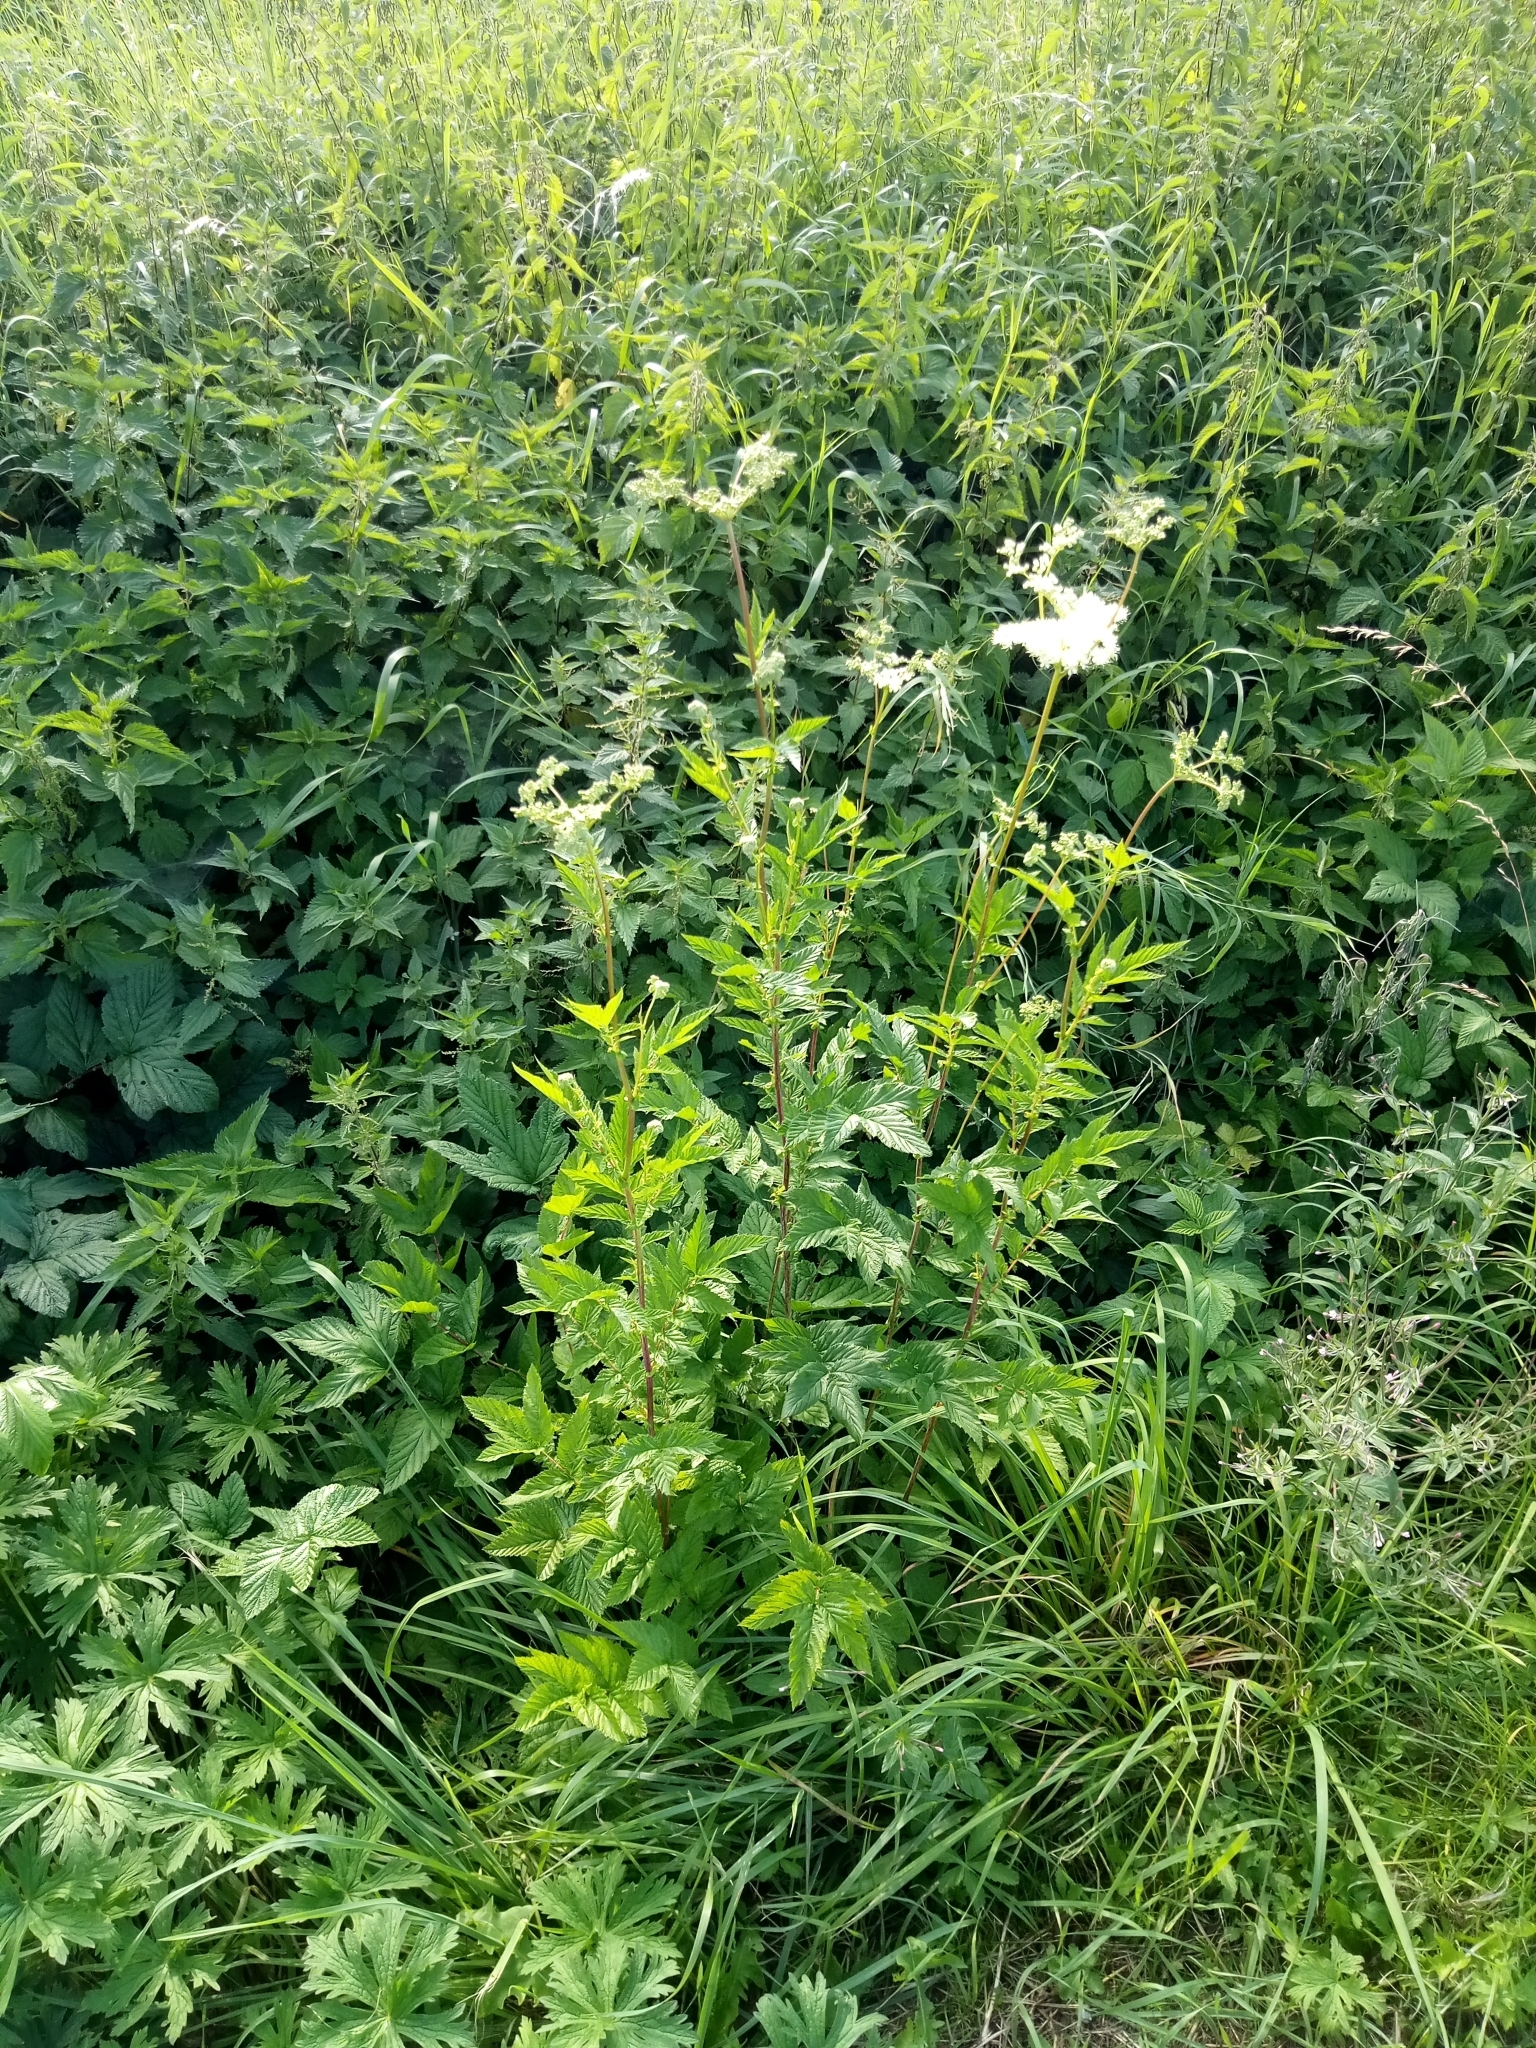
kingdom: Plantae
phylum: Tracheophyta
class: Magnoliopsida
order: Rosales
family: Rosaceae
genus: Filipendula
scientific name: Filipendula ulmaria
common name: Meadowsweet
